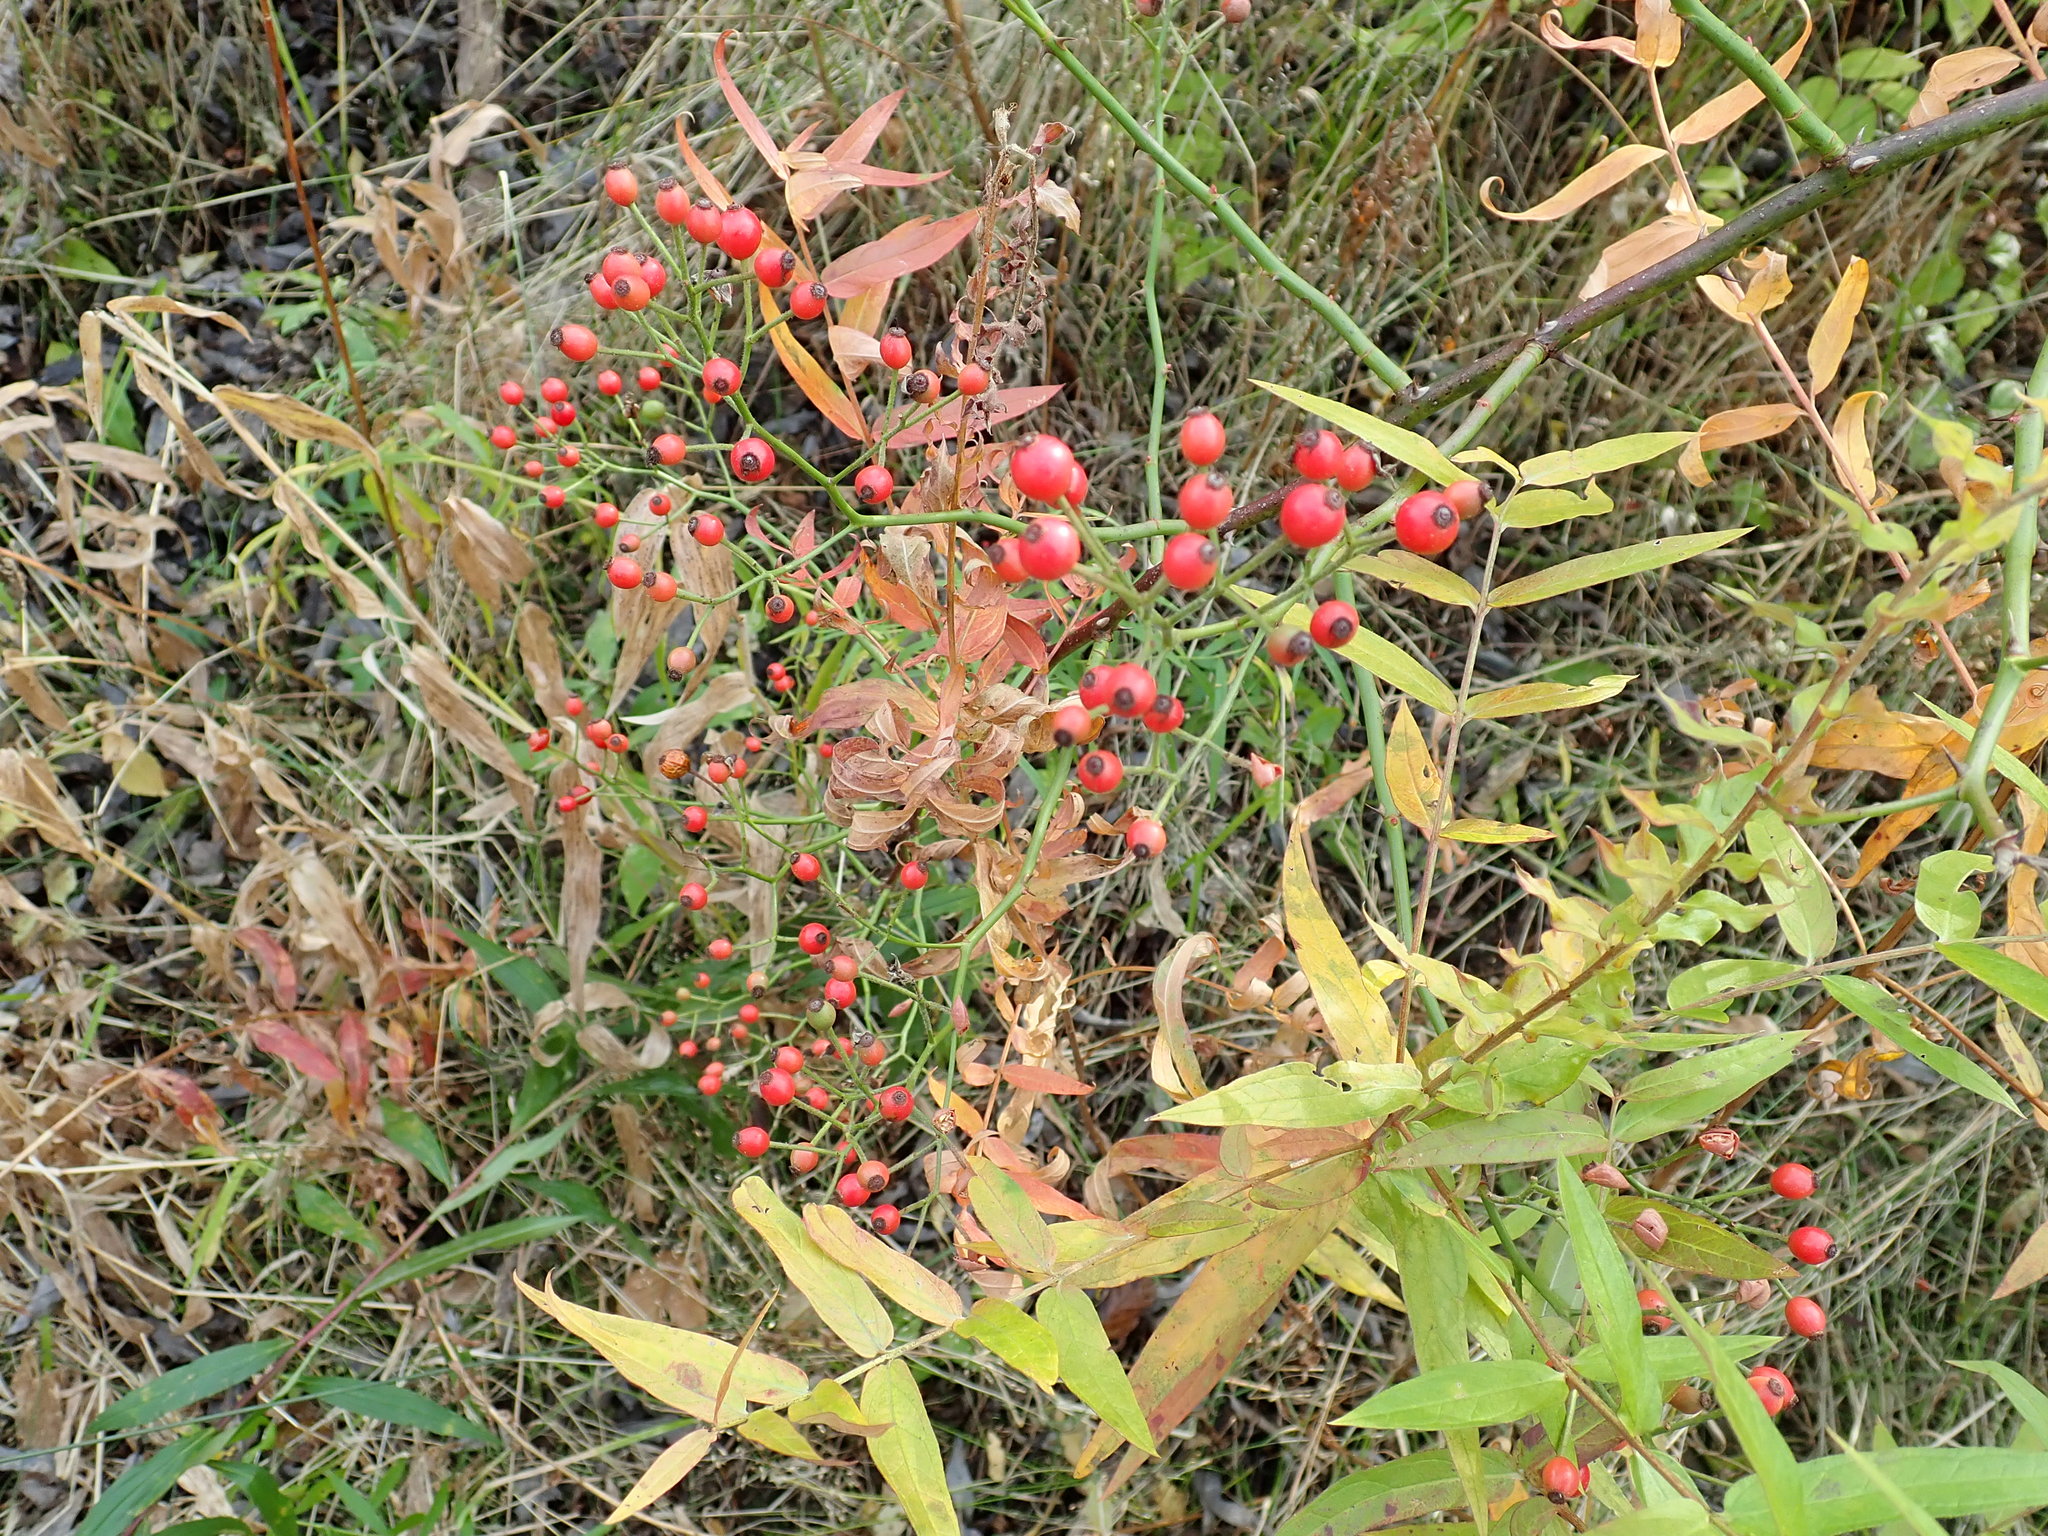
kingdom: Plantae
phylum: Tracheophyta
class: Magnoliopsida
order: Rosales
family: Rosaceae
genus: Rosa
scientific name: Rosa multiflora
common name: Multiflora rose
